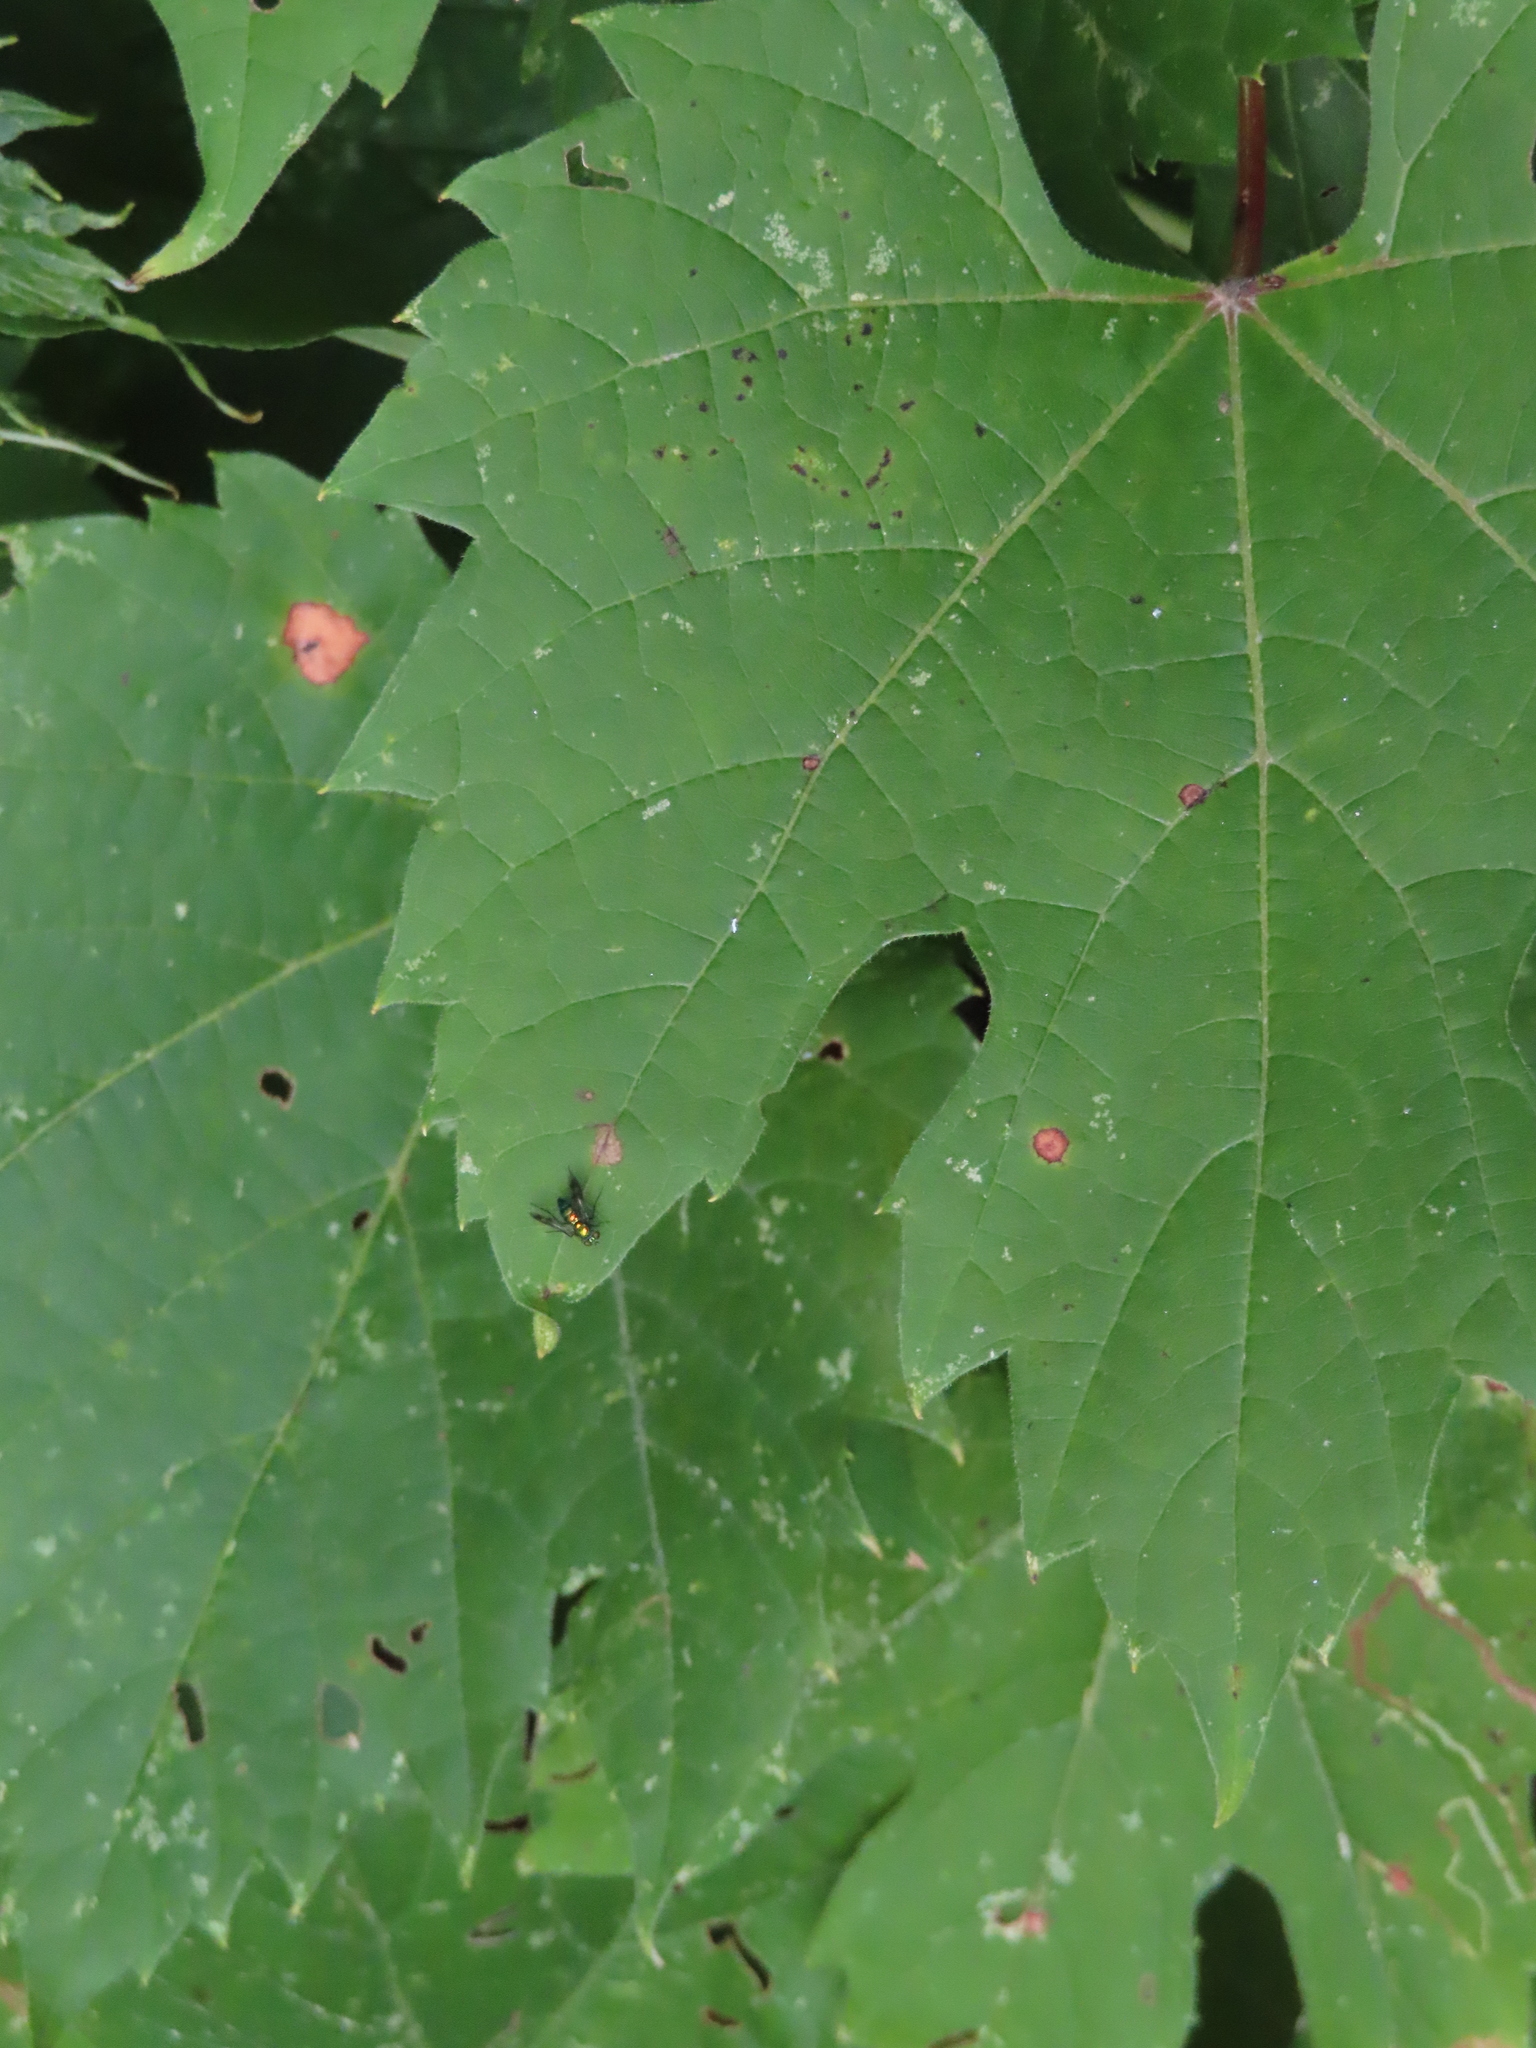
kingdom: Animalia
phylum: Arthropoda
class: Insecta
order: Diptera
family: Dolichopodidae
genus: Condylostylus
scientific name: Condylostylus patibulatus
